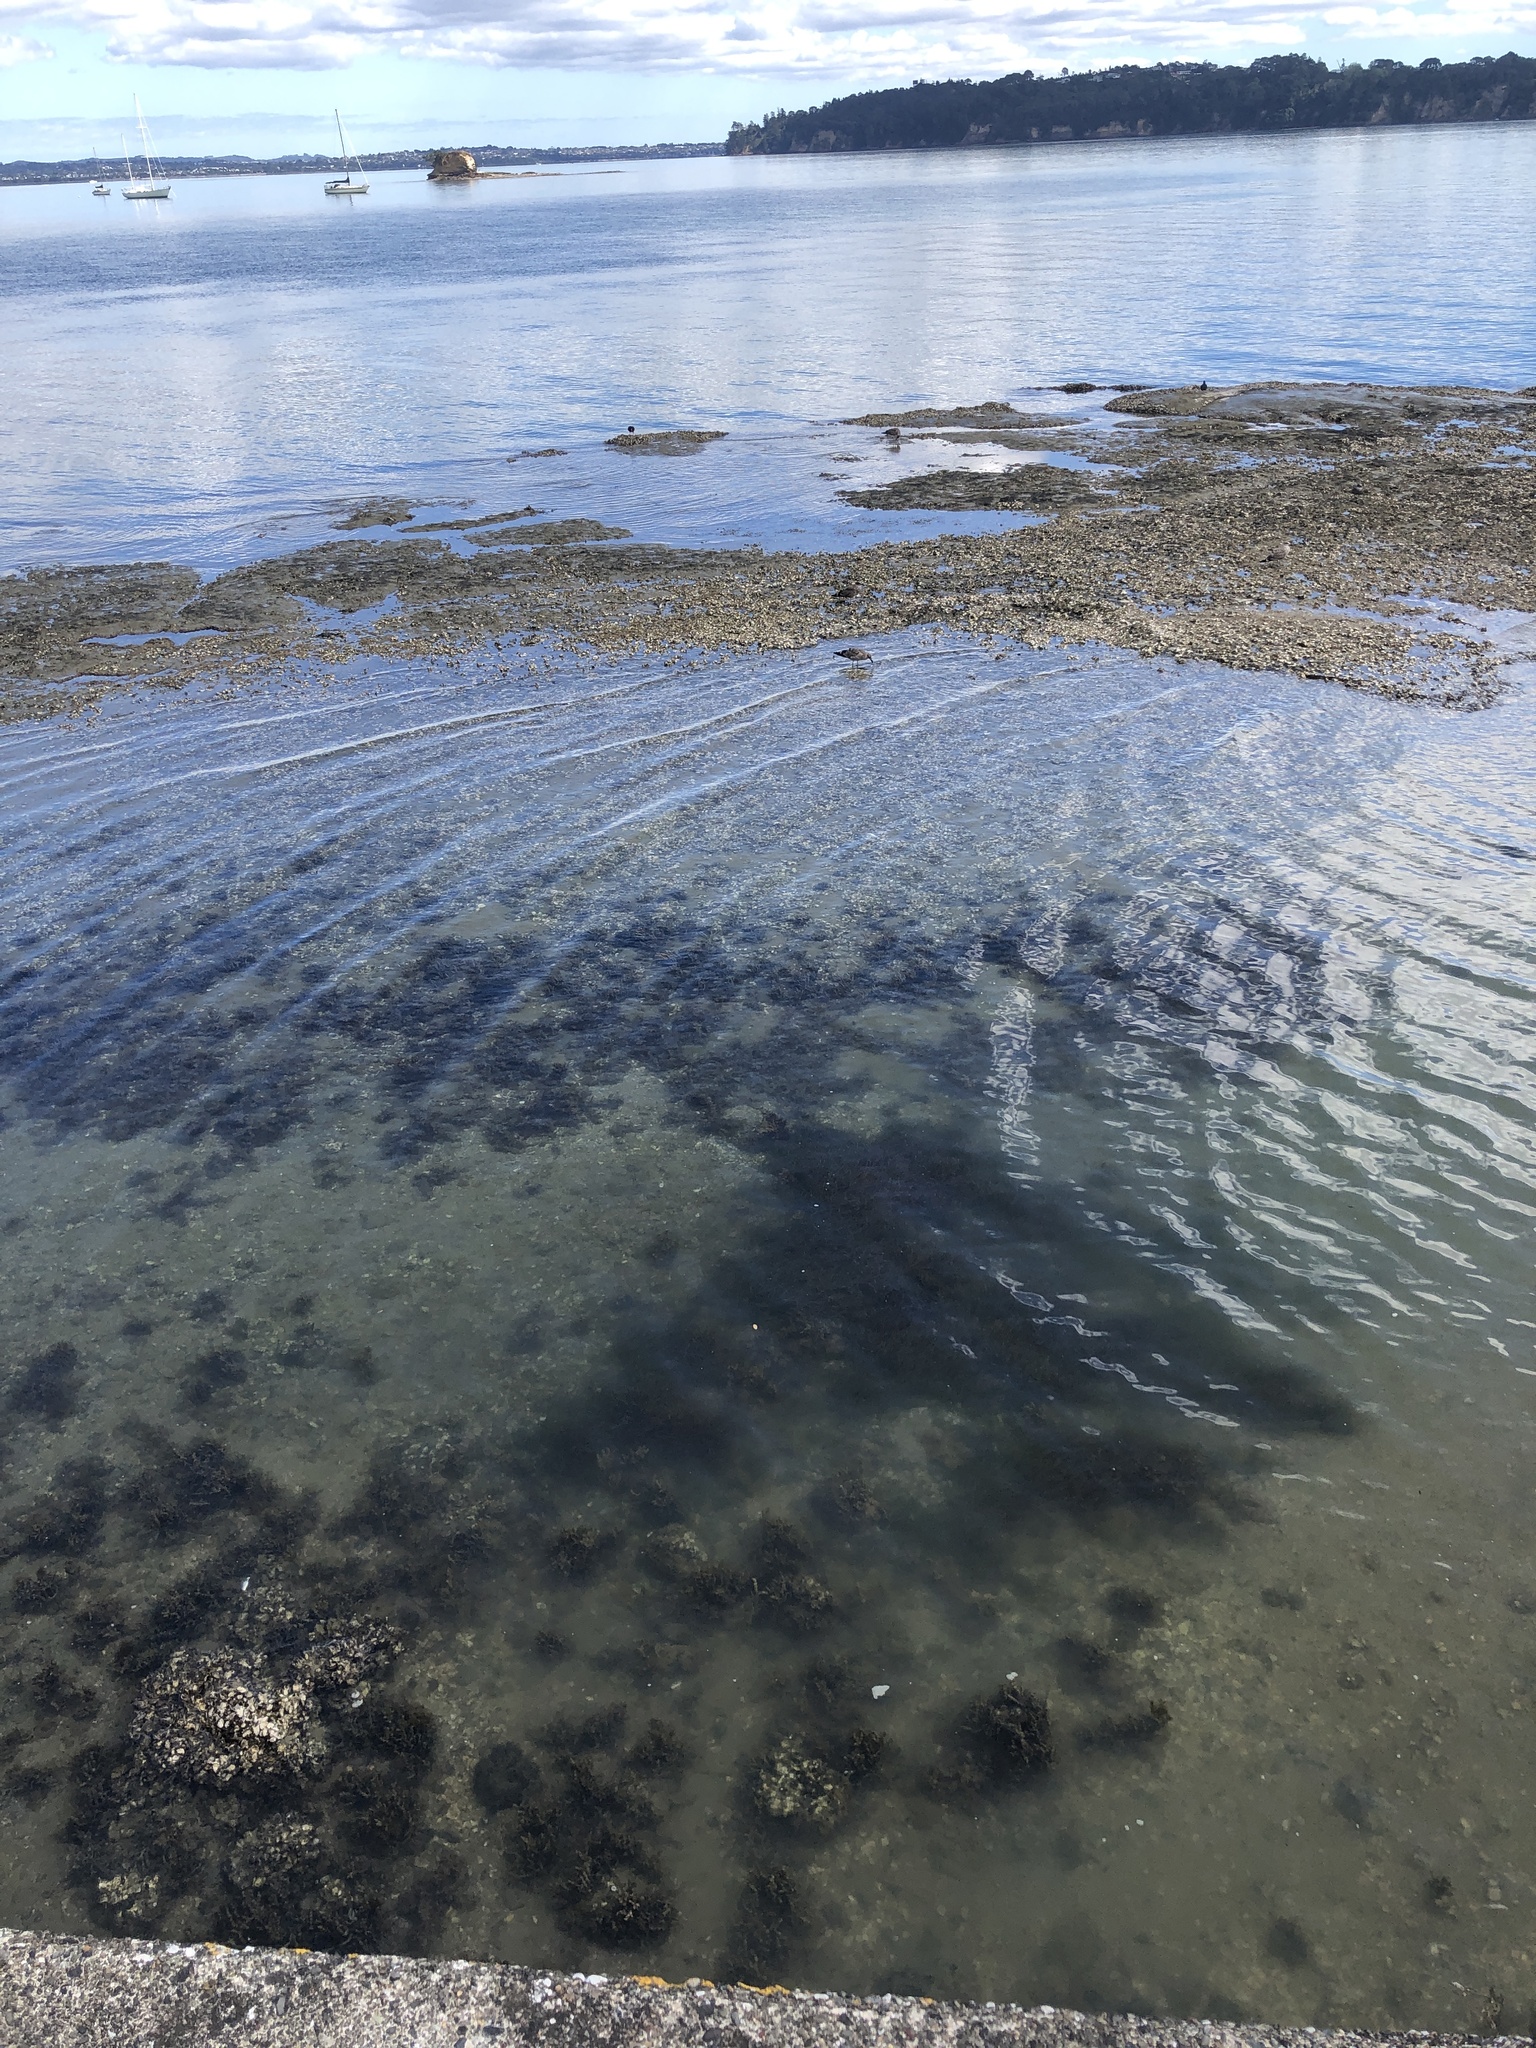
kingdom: Animalia
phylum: Chordata
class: Aves
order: Charadriiformes
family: Laridae
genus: Larus
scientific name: Larus dominicanus
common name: Kelp gull
